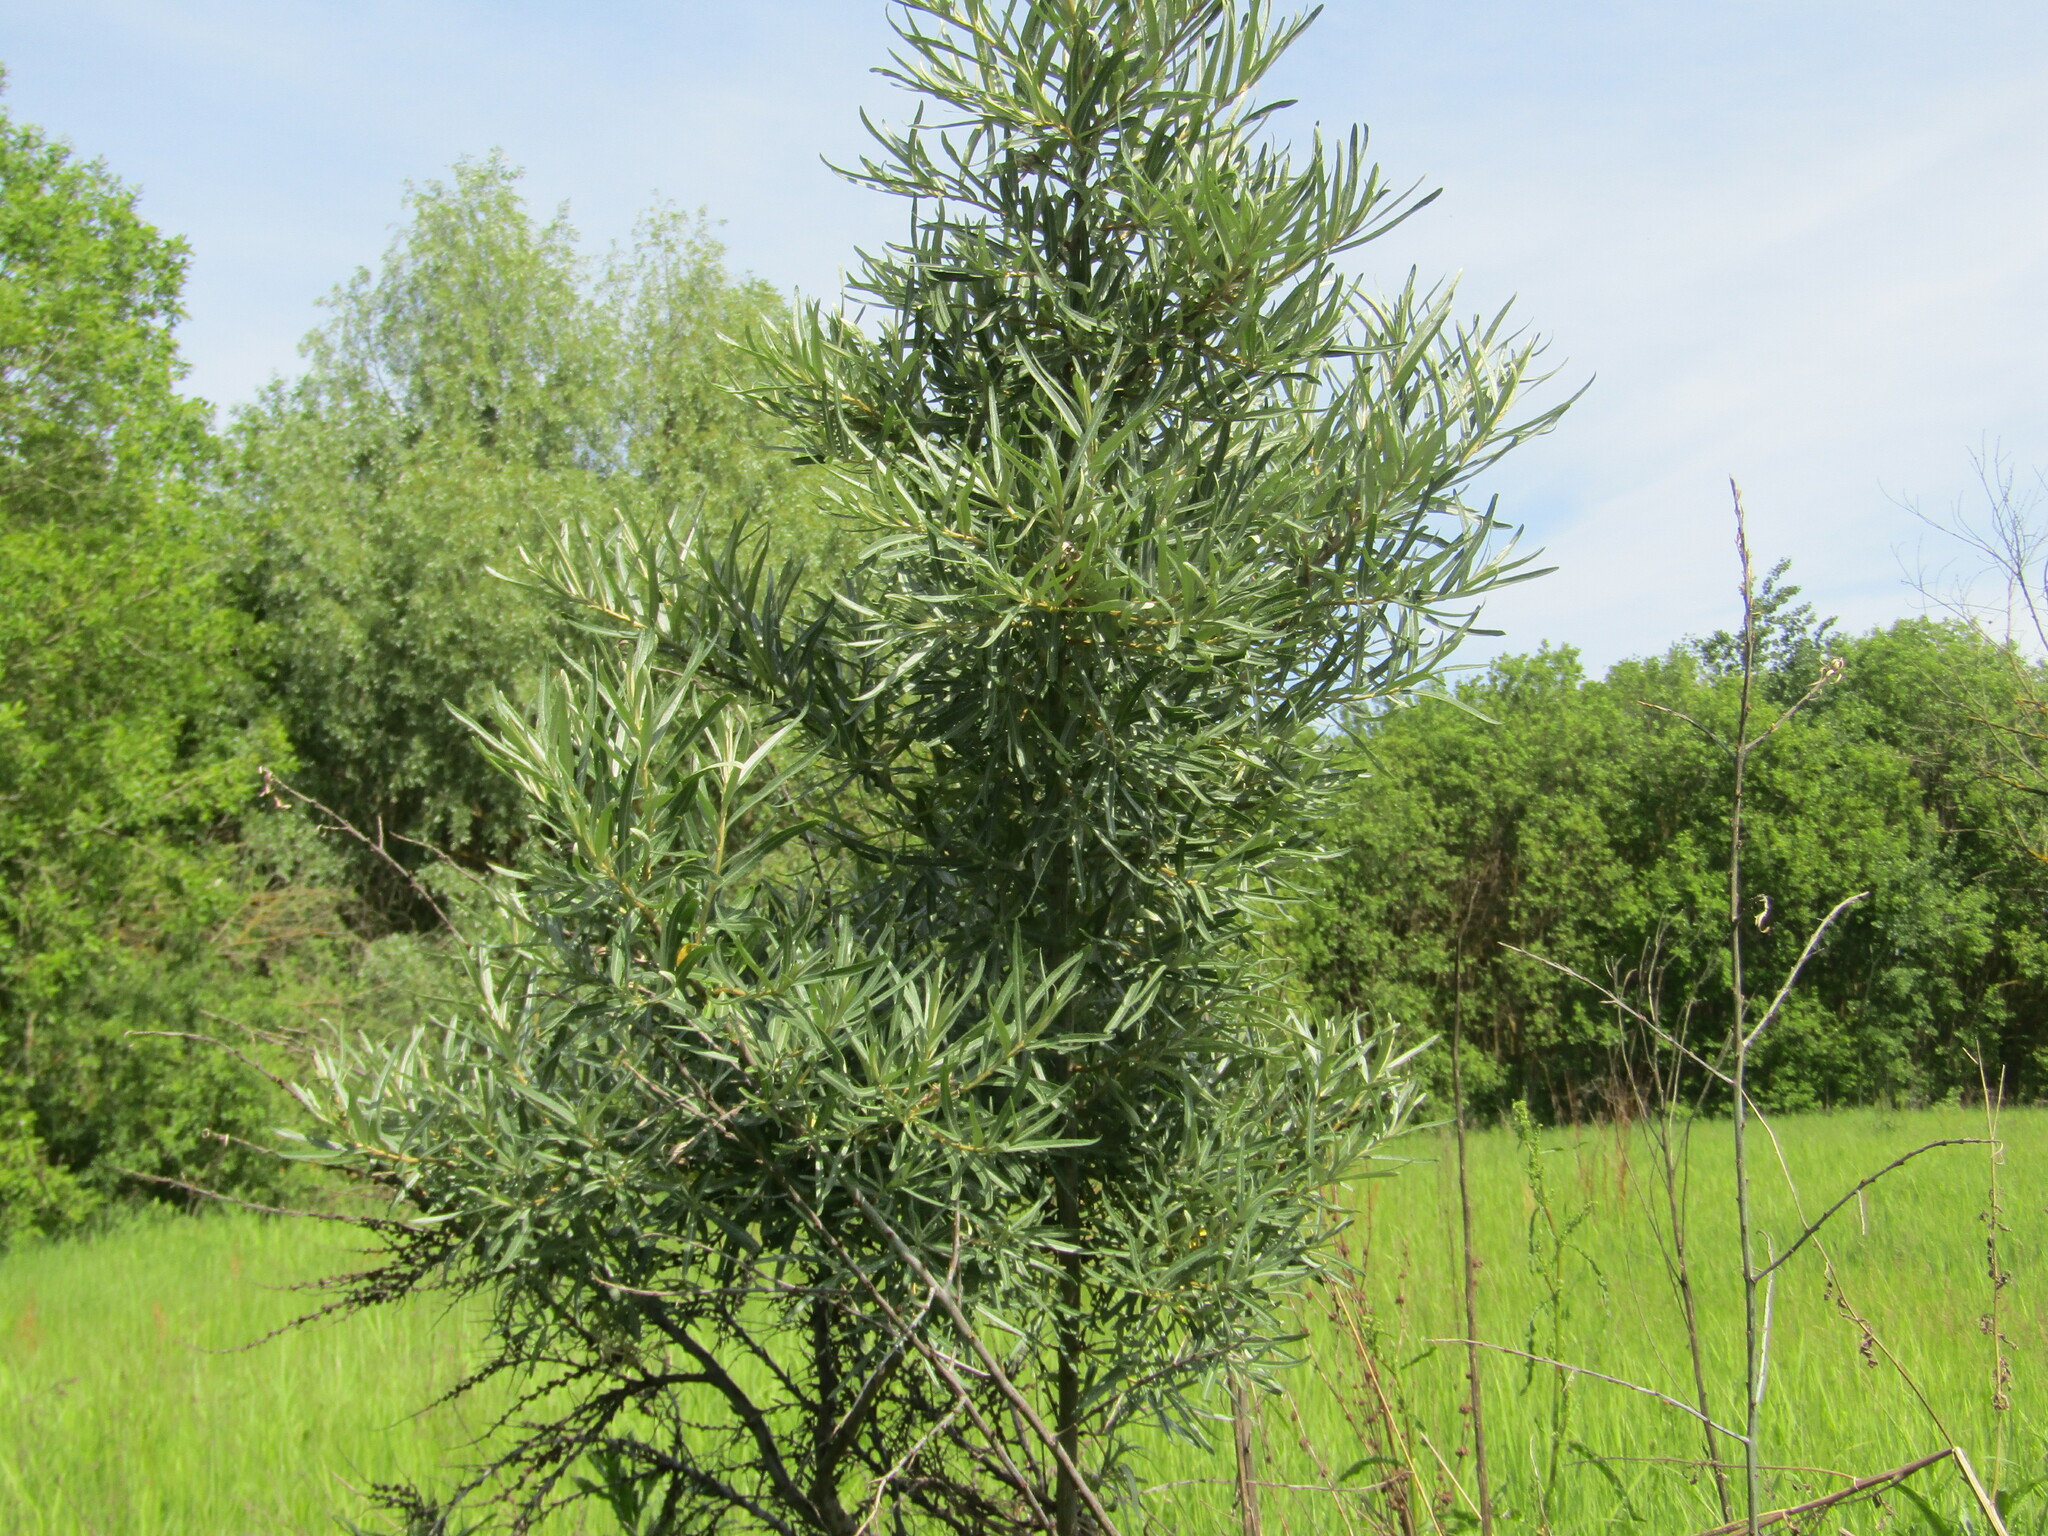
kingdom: Plantae
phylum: Tracheophyta
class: Magnoliopsida
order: Rosales
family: Elaeagnaceae
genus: Hippophae
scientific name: Hippophae rhamnoides
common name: Sea-buckthorn
